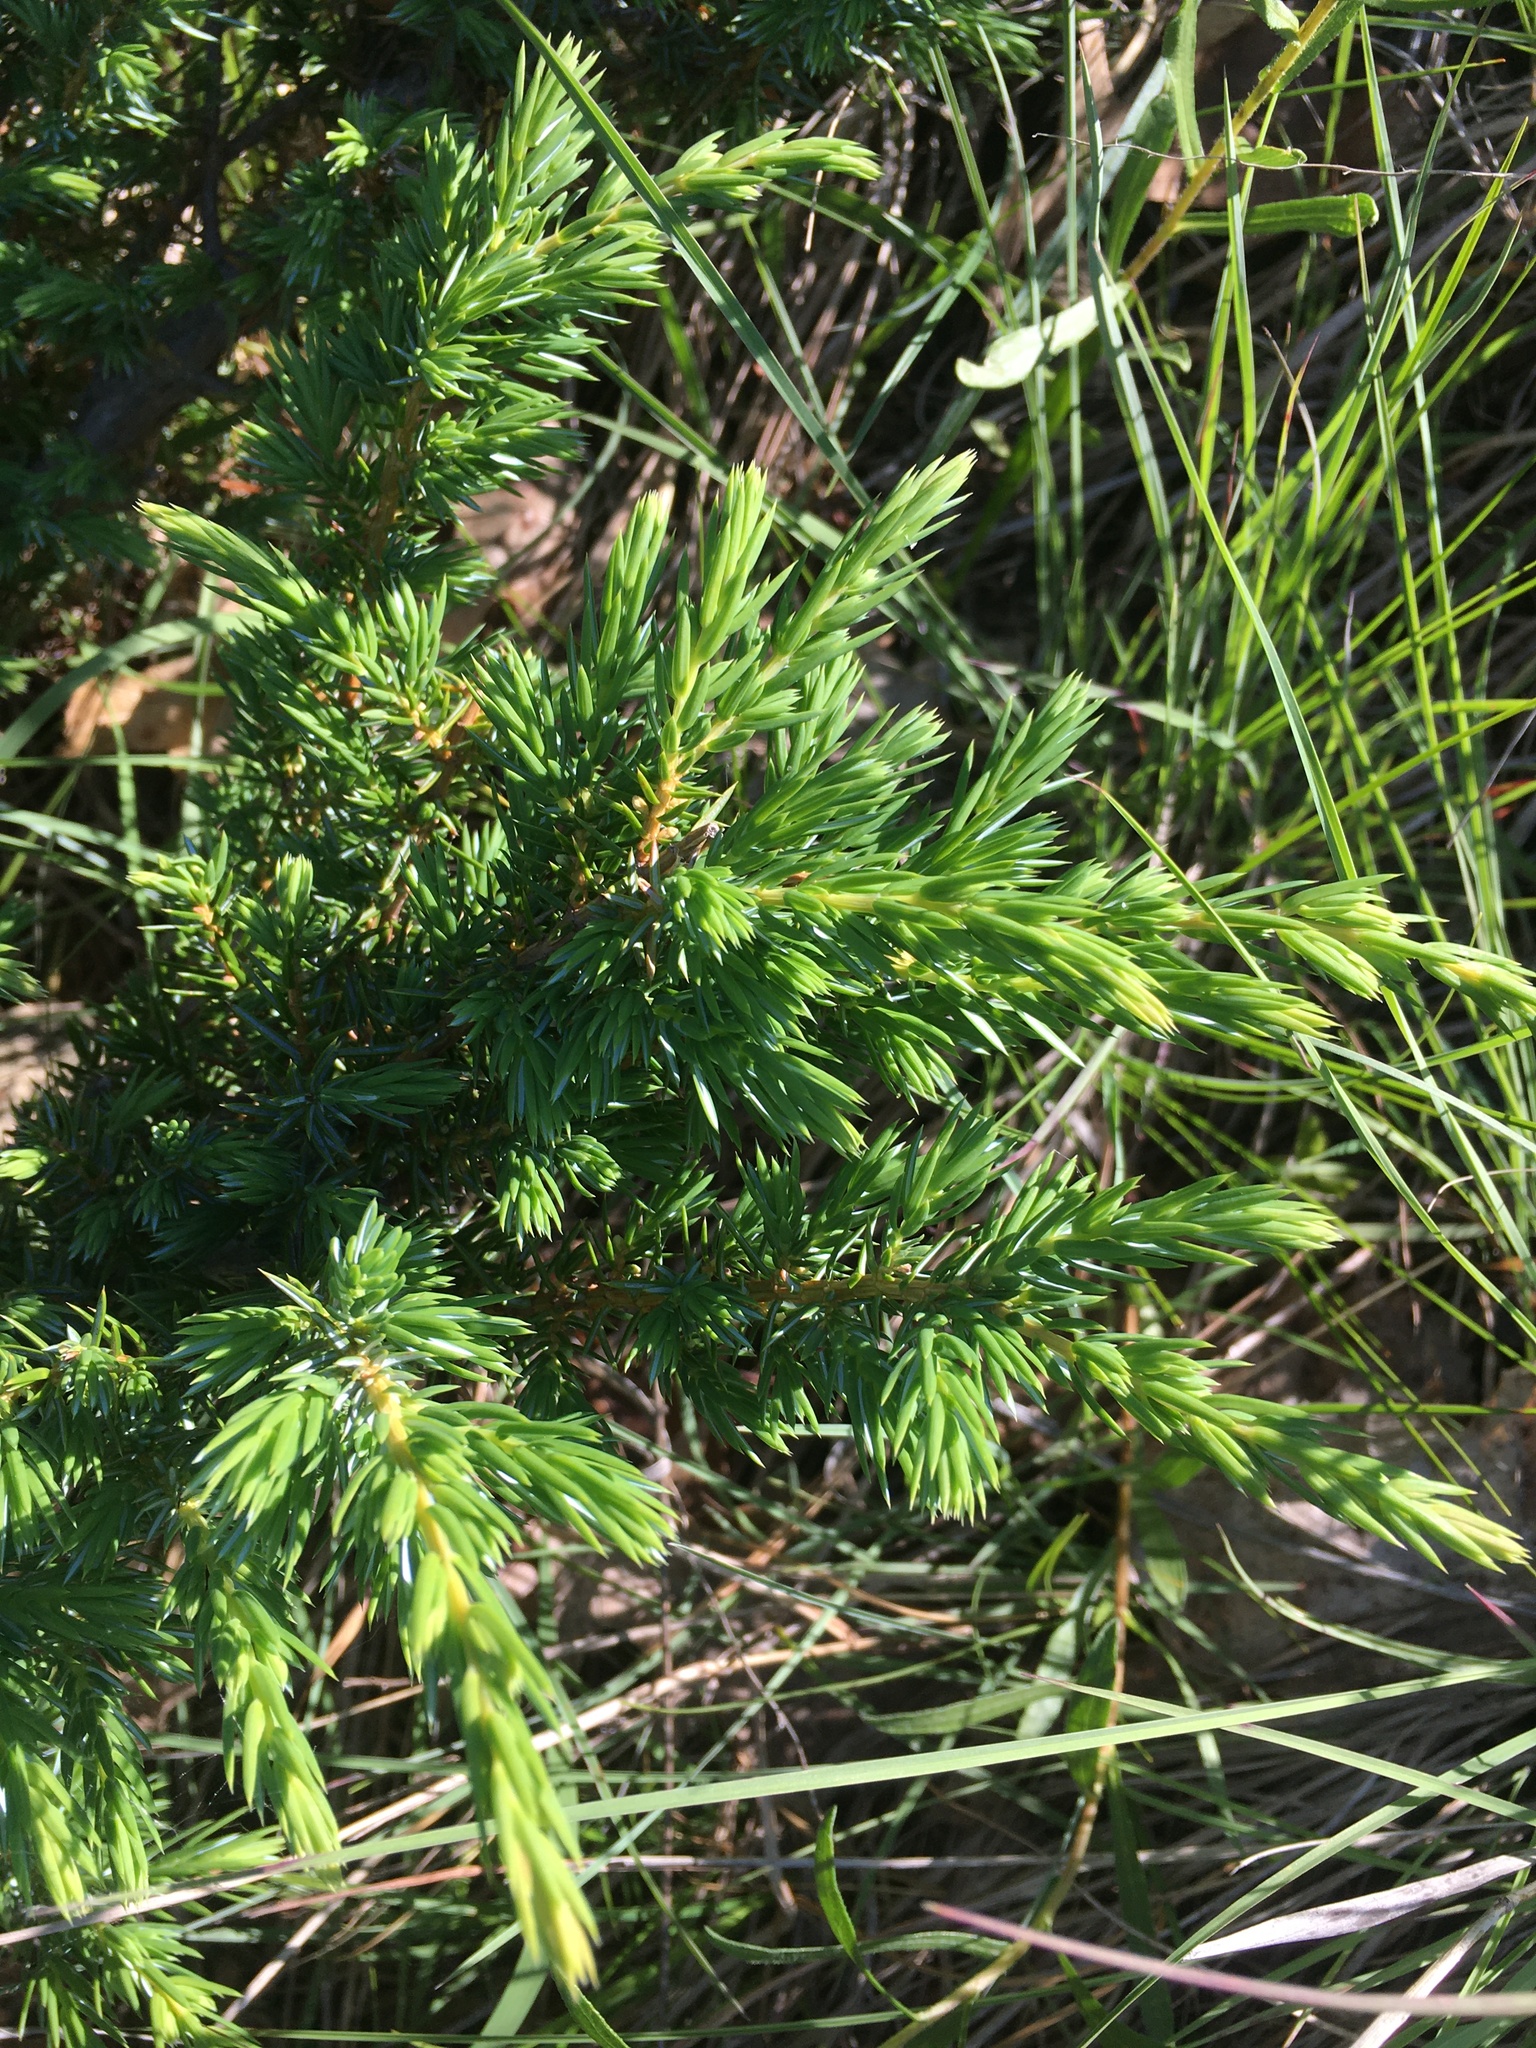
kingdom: Plantae
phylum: Tracheophyta
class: Pinopsida
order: Pinales
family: Cupressaceae
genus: Juniperus
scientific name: Juniperus communis
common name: Common juniper
